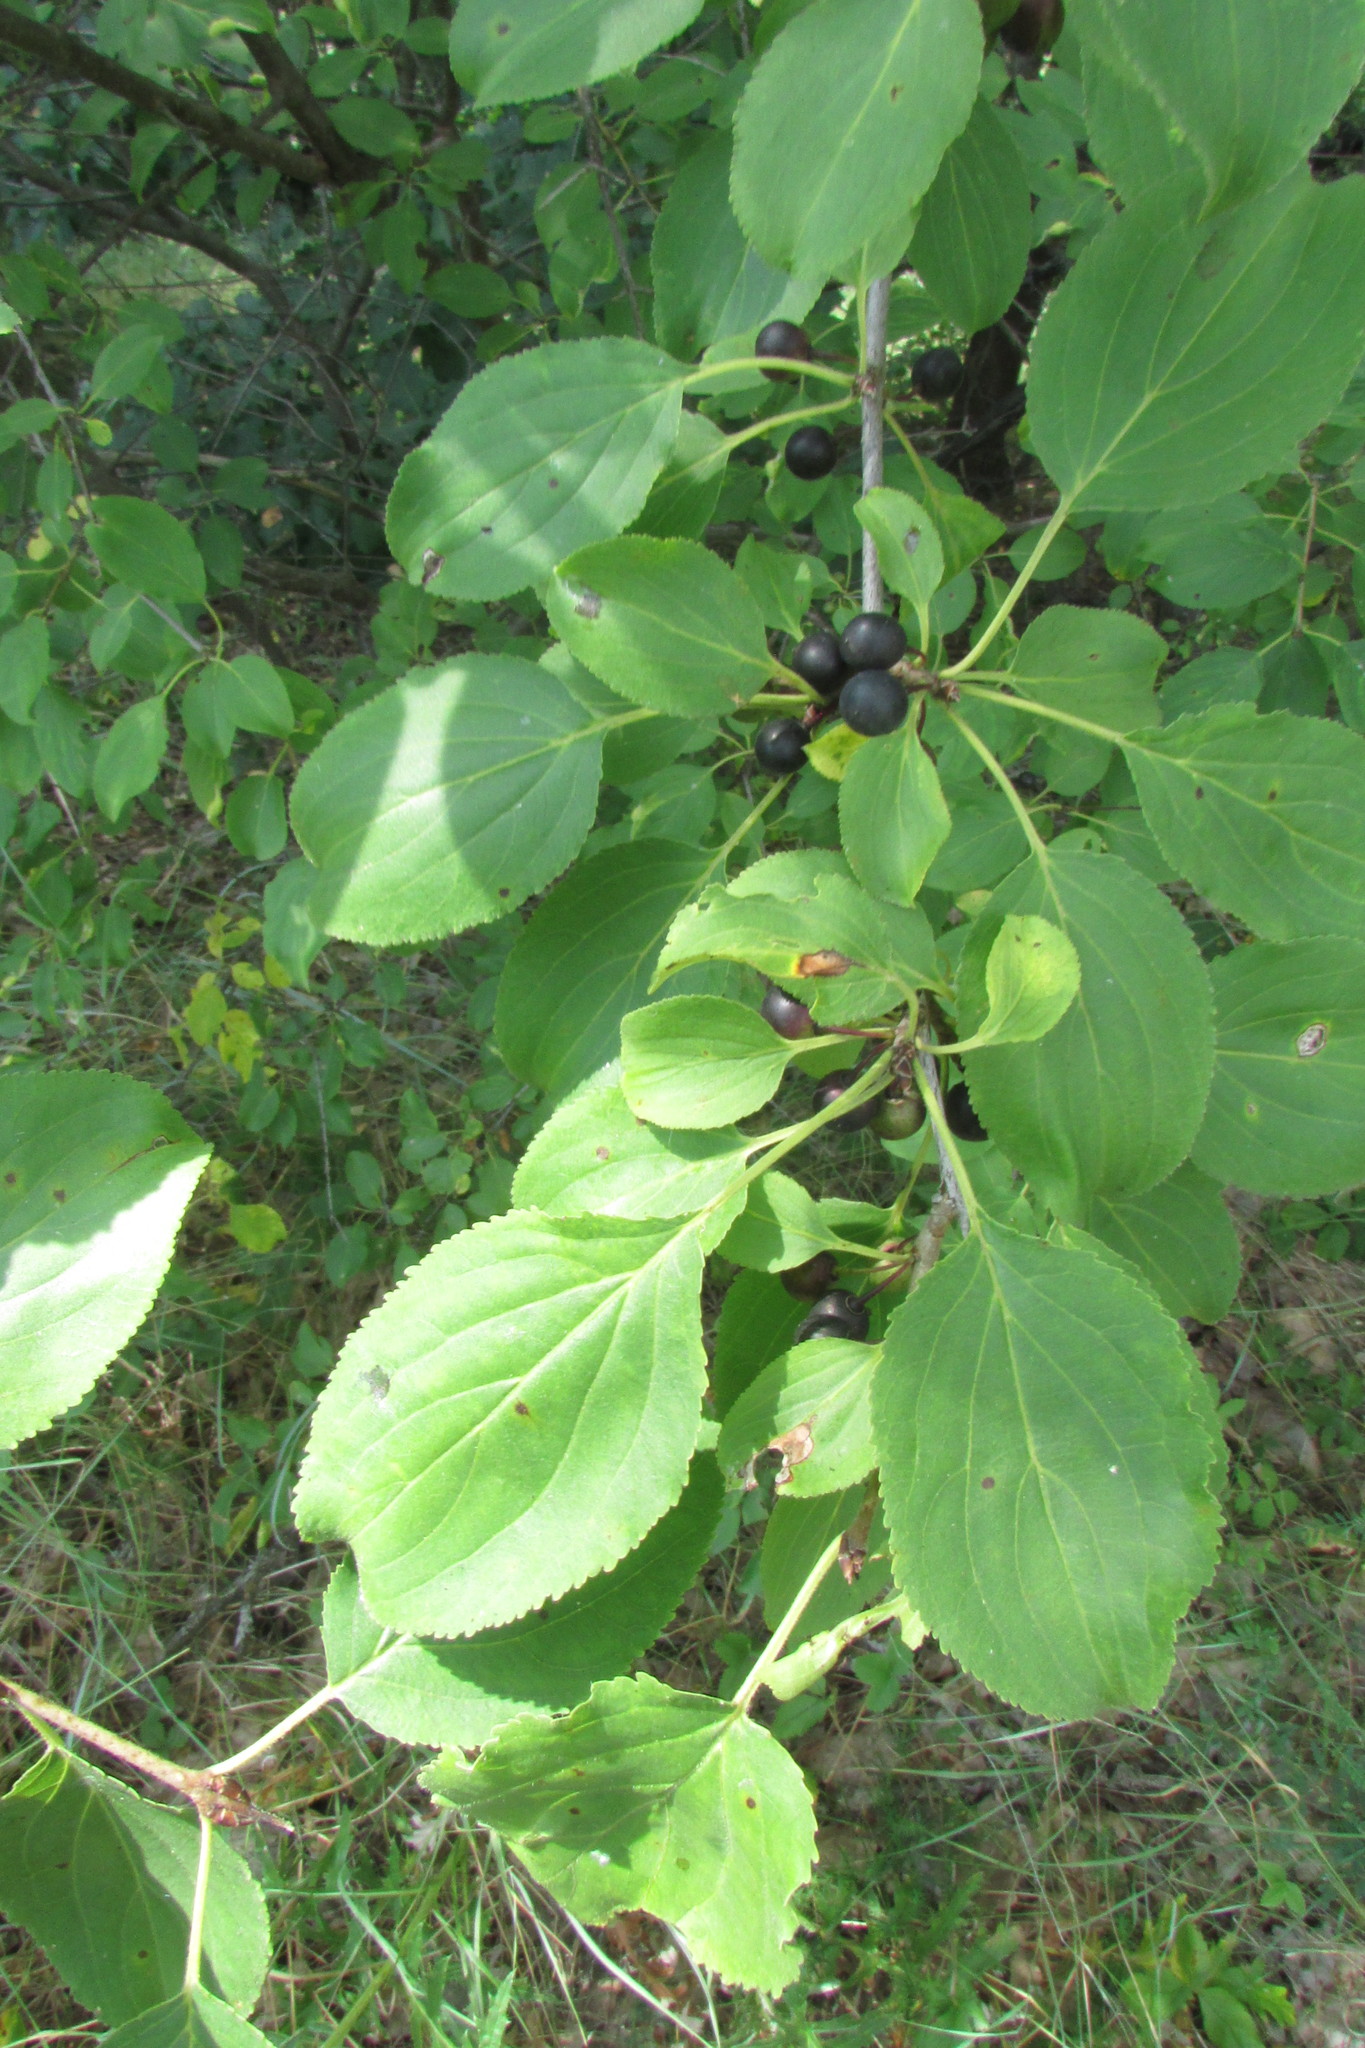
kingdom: Plantae
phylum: Tracheophyta
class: Magnoliopsida
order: Rosales
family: Rhamnaceae
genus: Rhamnus
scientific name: Rhamnus cathartica
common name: Common buckthorn
